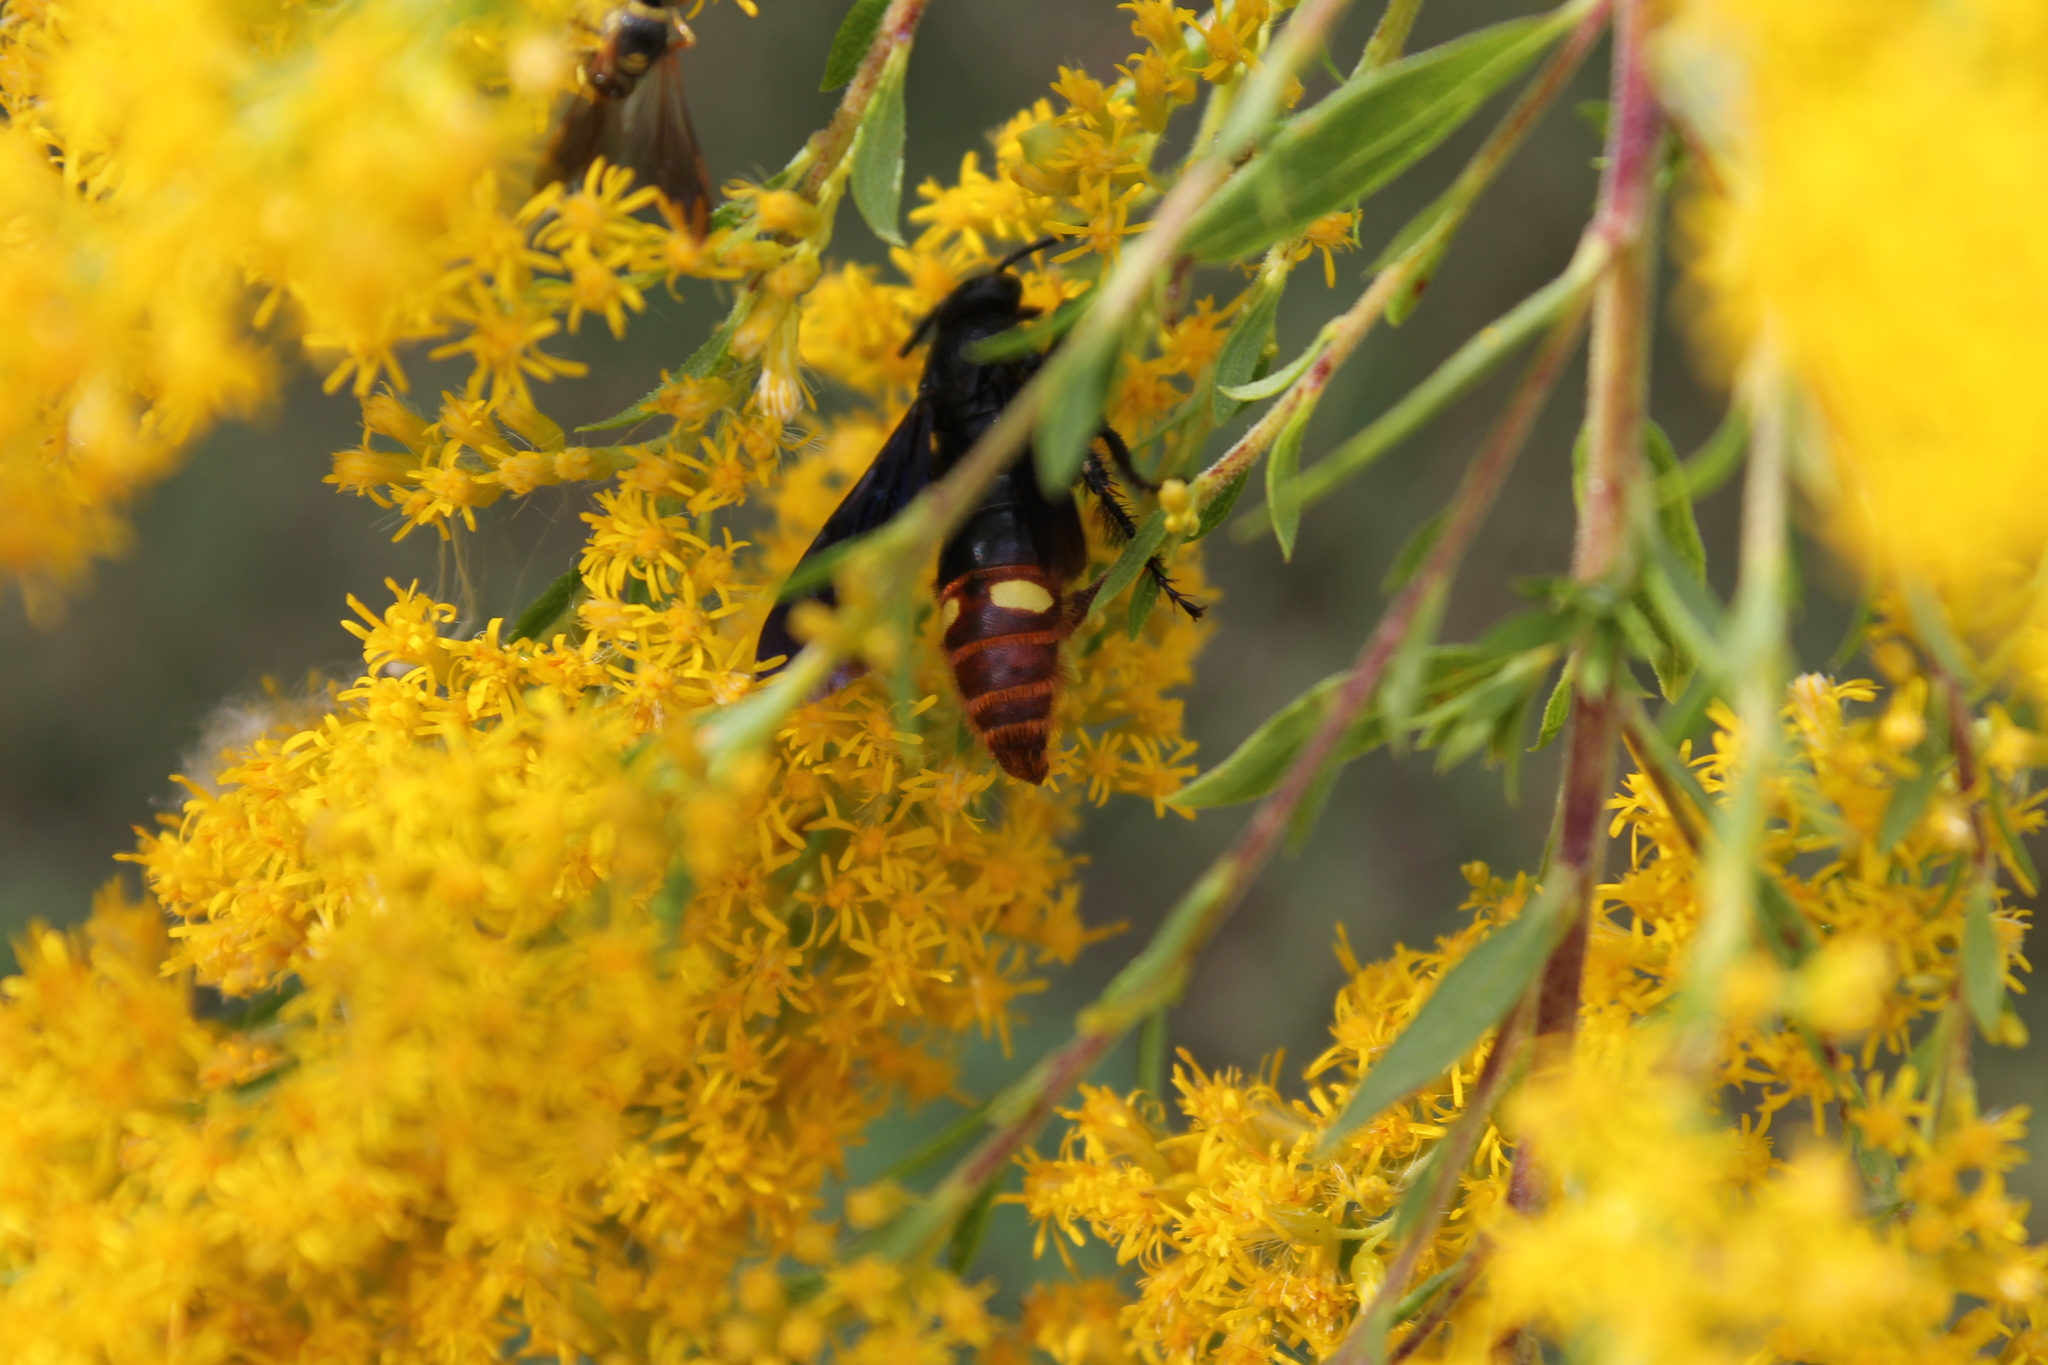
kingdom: Animalia
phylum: Arthropoda
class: Insecta
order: Hymenoptera
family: Scoliidae
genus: Scolia
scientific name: Scolia dubia
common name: Blue-winged scoliid wasp
